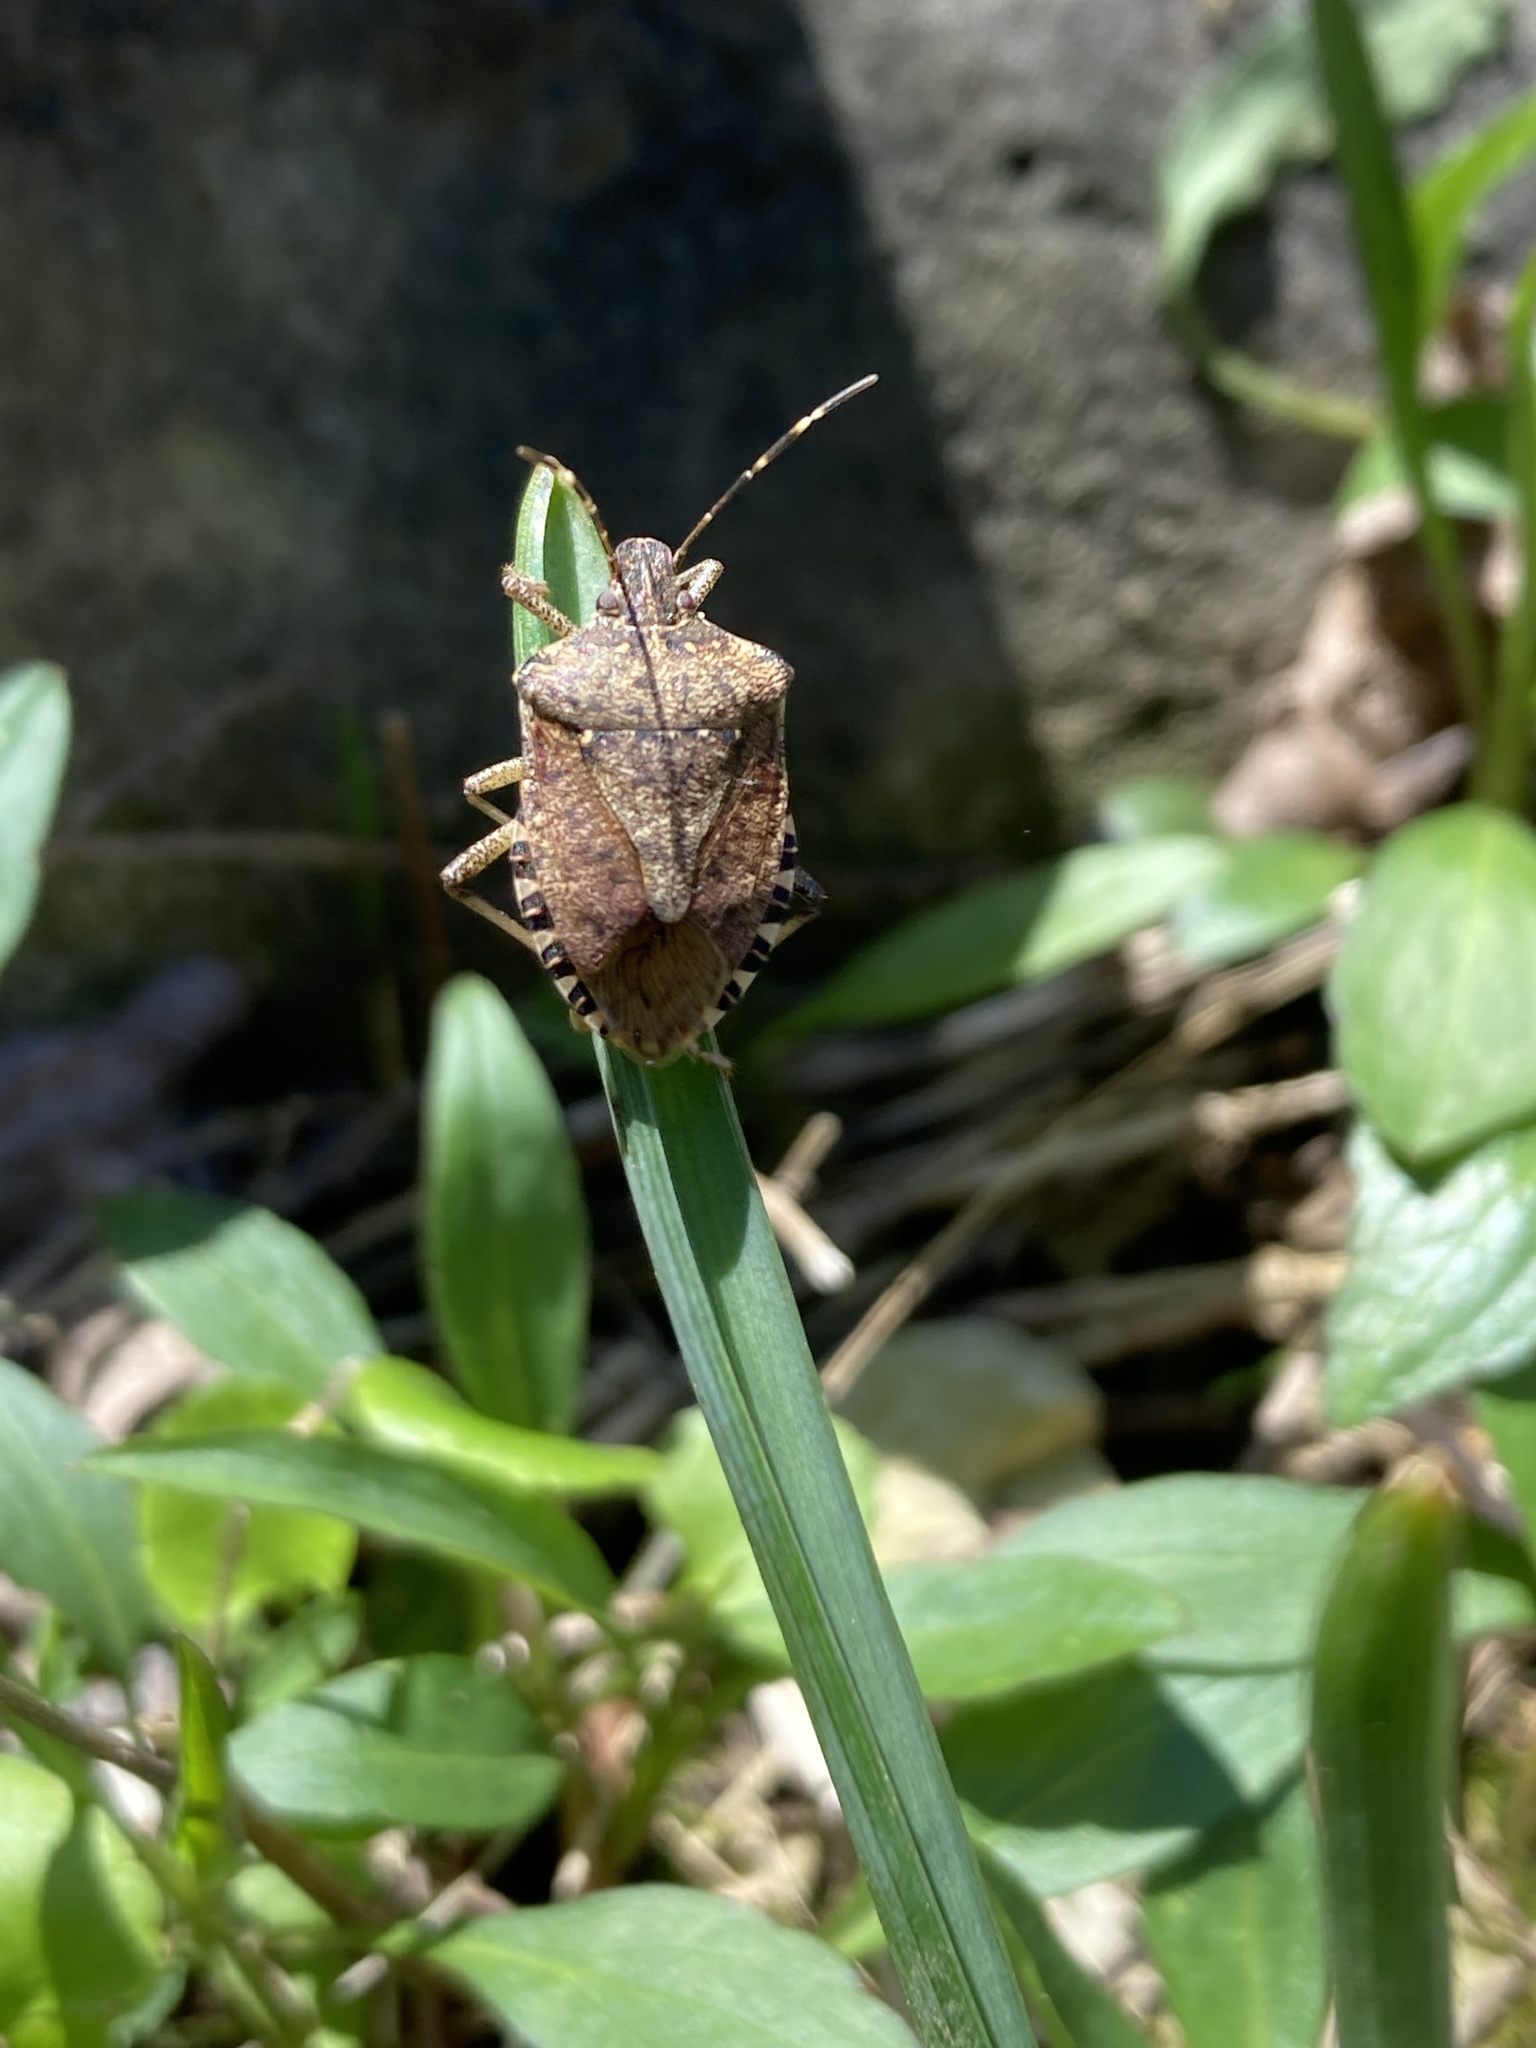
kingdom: Animalia
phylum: Arthropoda
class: Insecta
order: Hemiptera
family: Pentatomidae
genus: Halyomorpha
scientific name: Halyomorpha halys
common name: Brown marmorated stink bug
